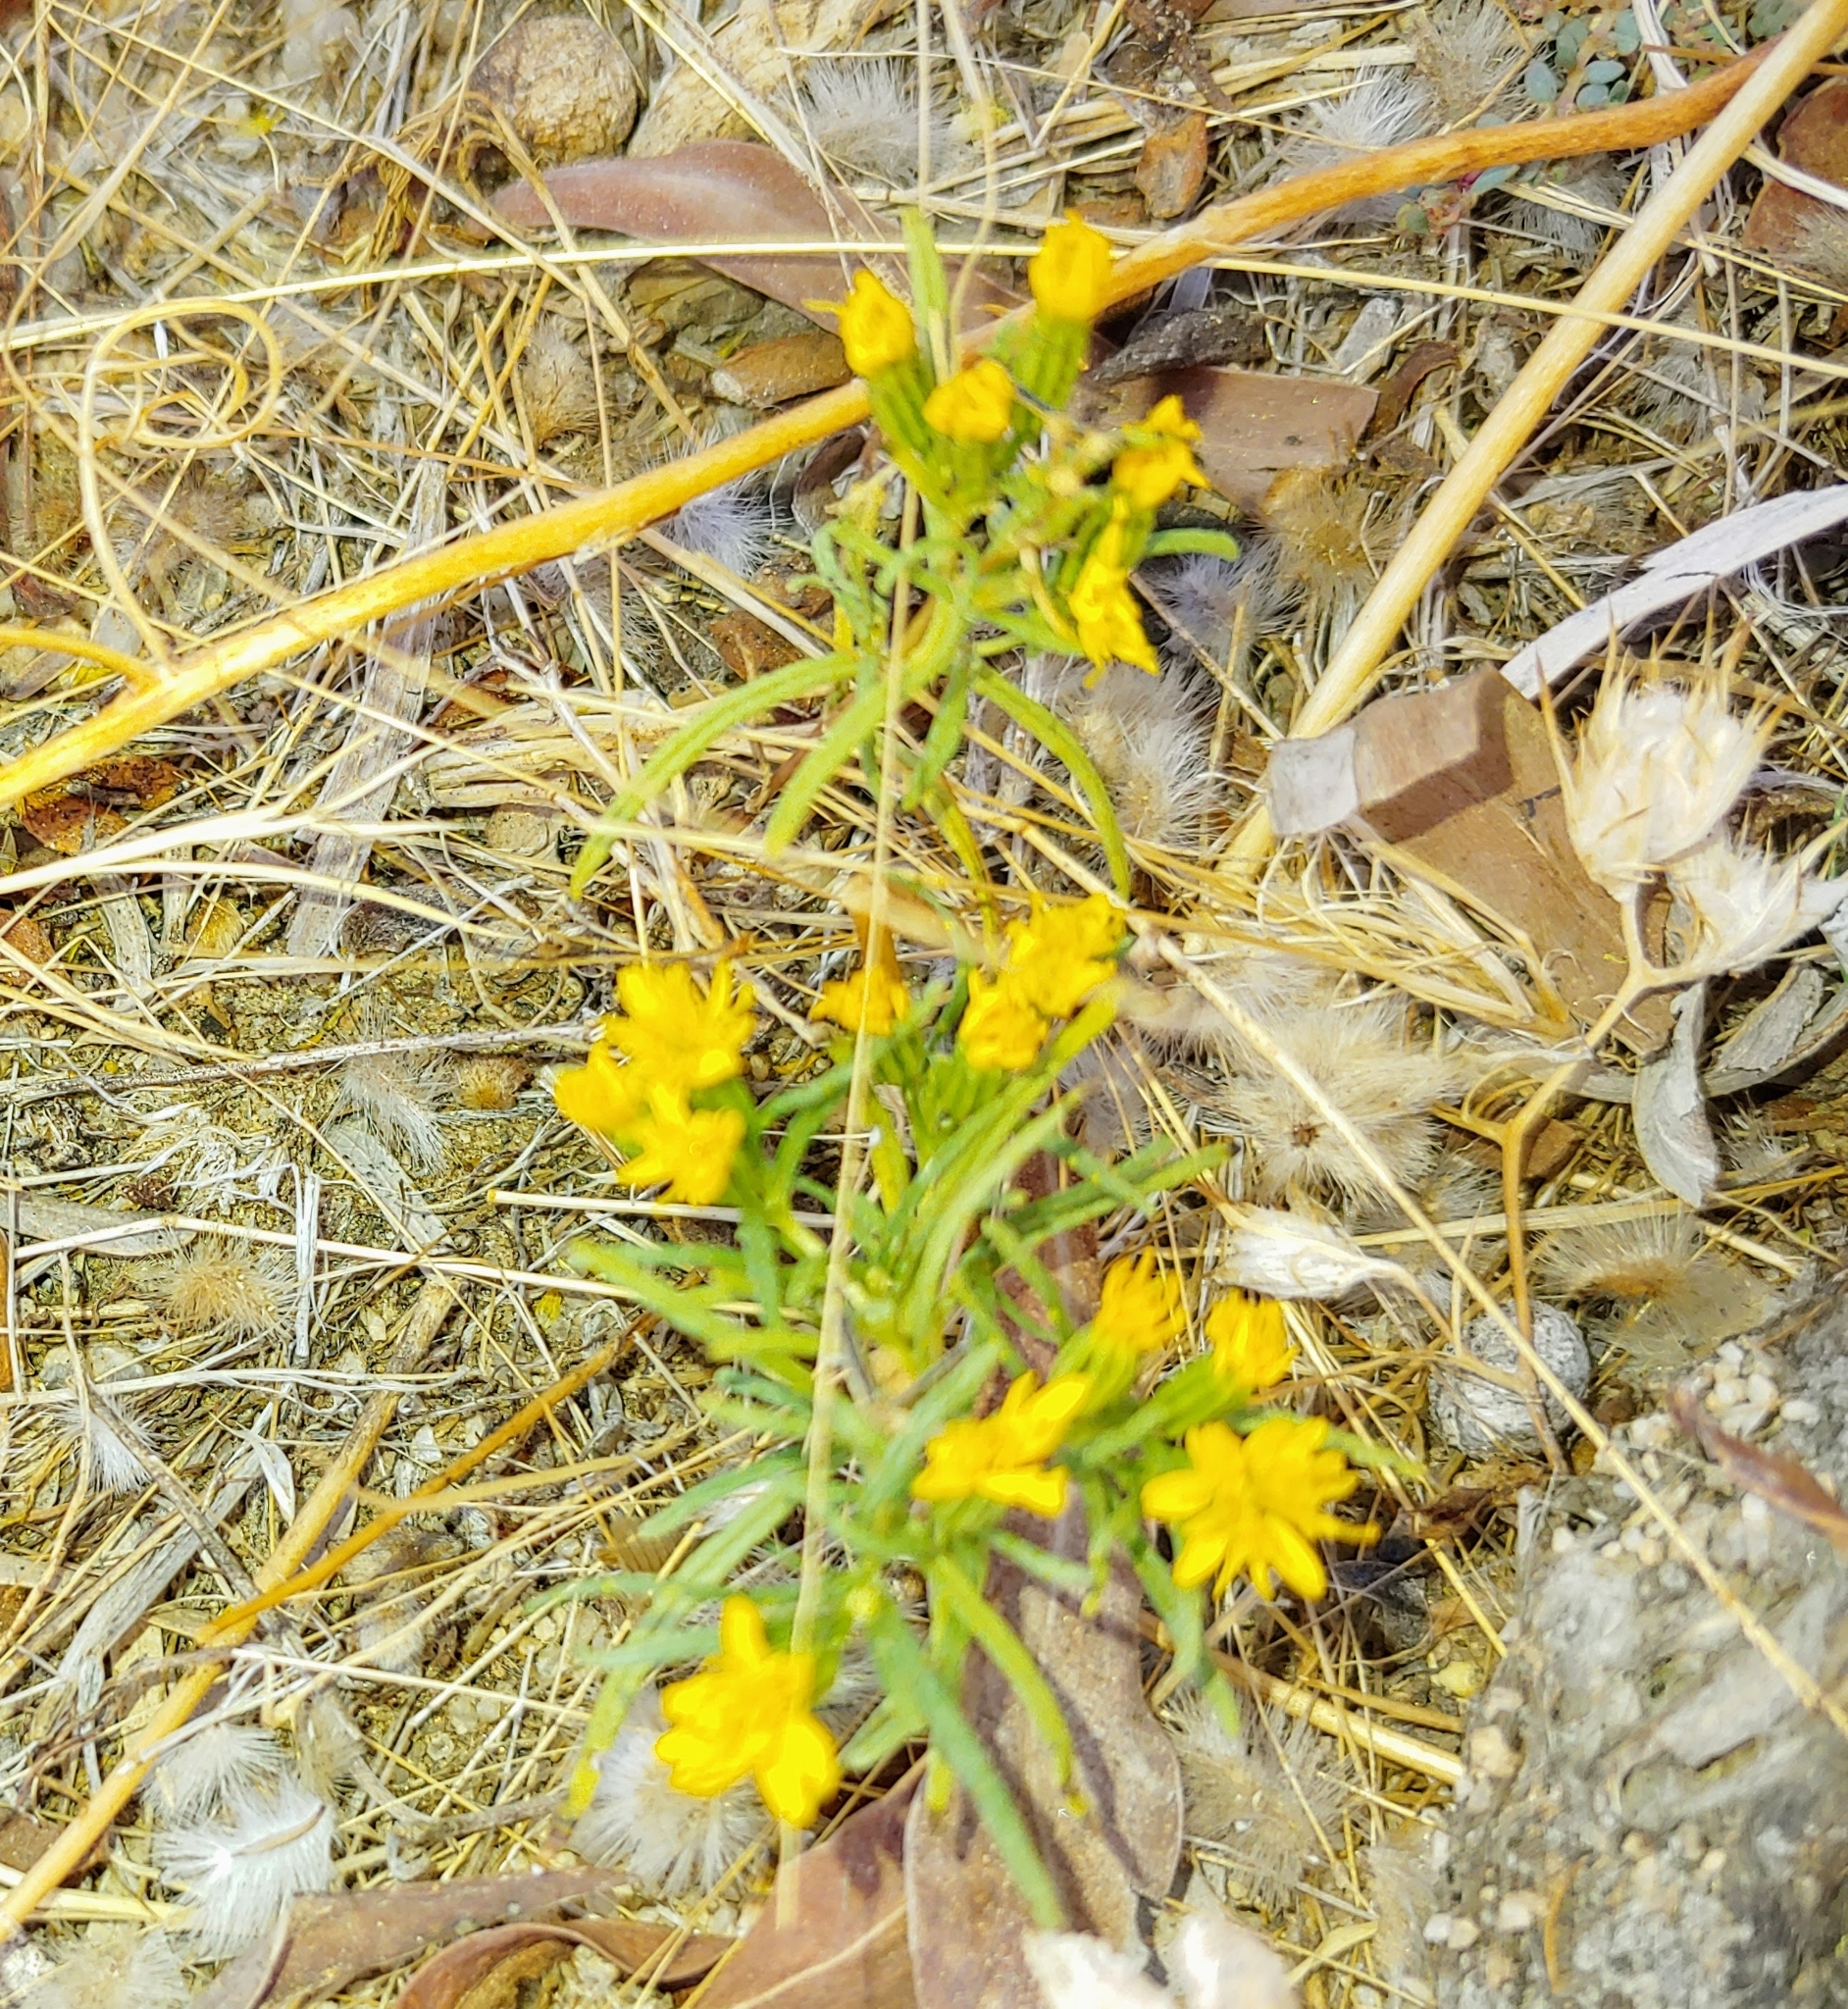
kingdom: Plantae
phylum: Tracheophyta
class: Magnoliopsida
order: Asterales
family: Asteraceae
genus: Pectis
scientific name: Pectis papposa
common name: Many-bristle chinchweed
